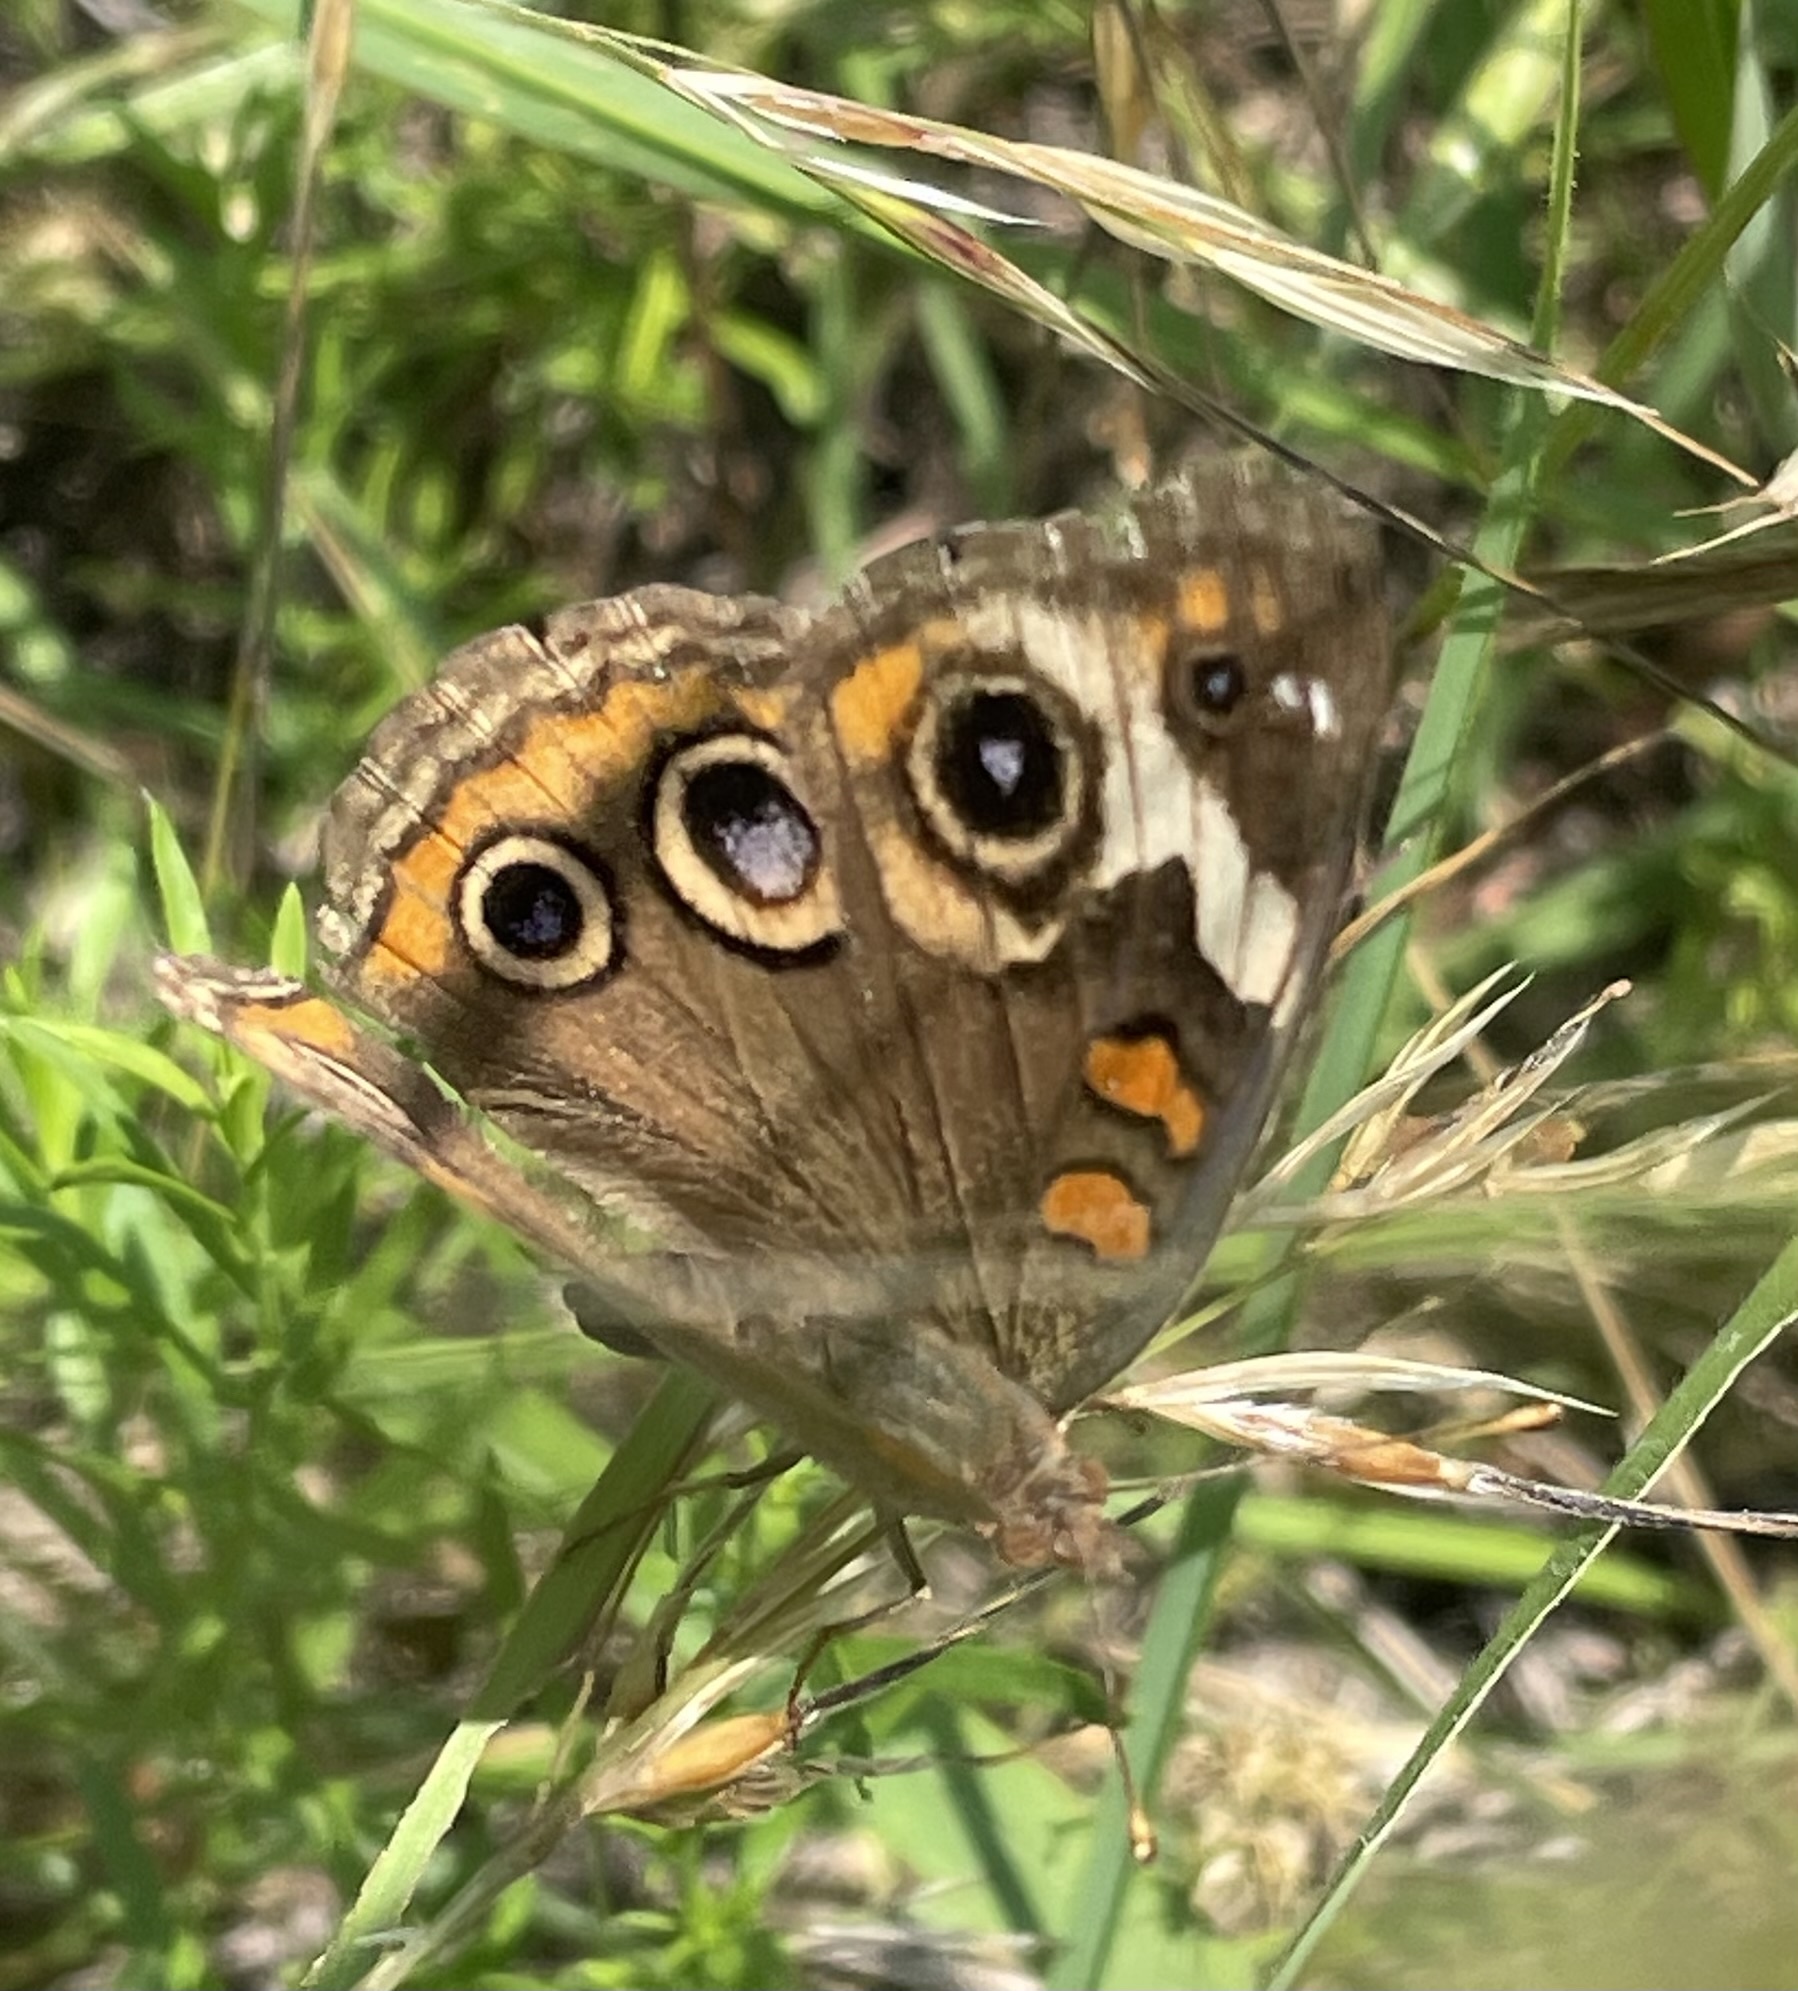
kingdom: Animalia
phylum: Arthropoda
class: Insecta
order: Lepidoptera
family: Nymphalidae
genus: Junonia
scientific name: Junonia coenia
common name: Common buckeye
